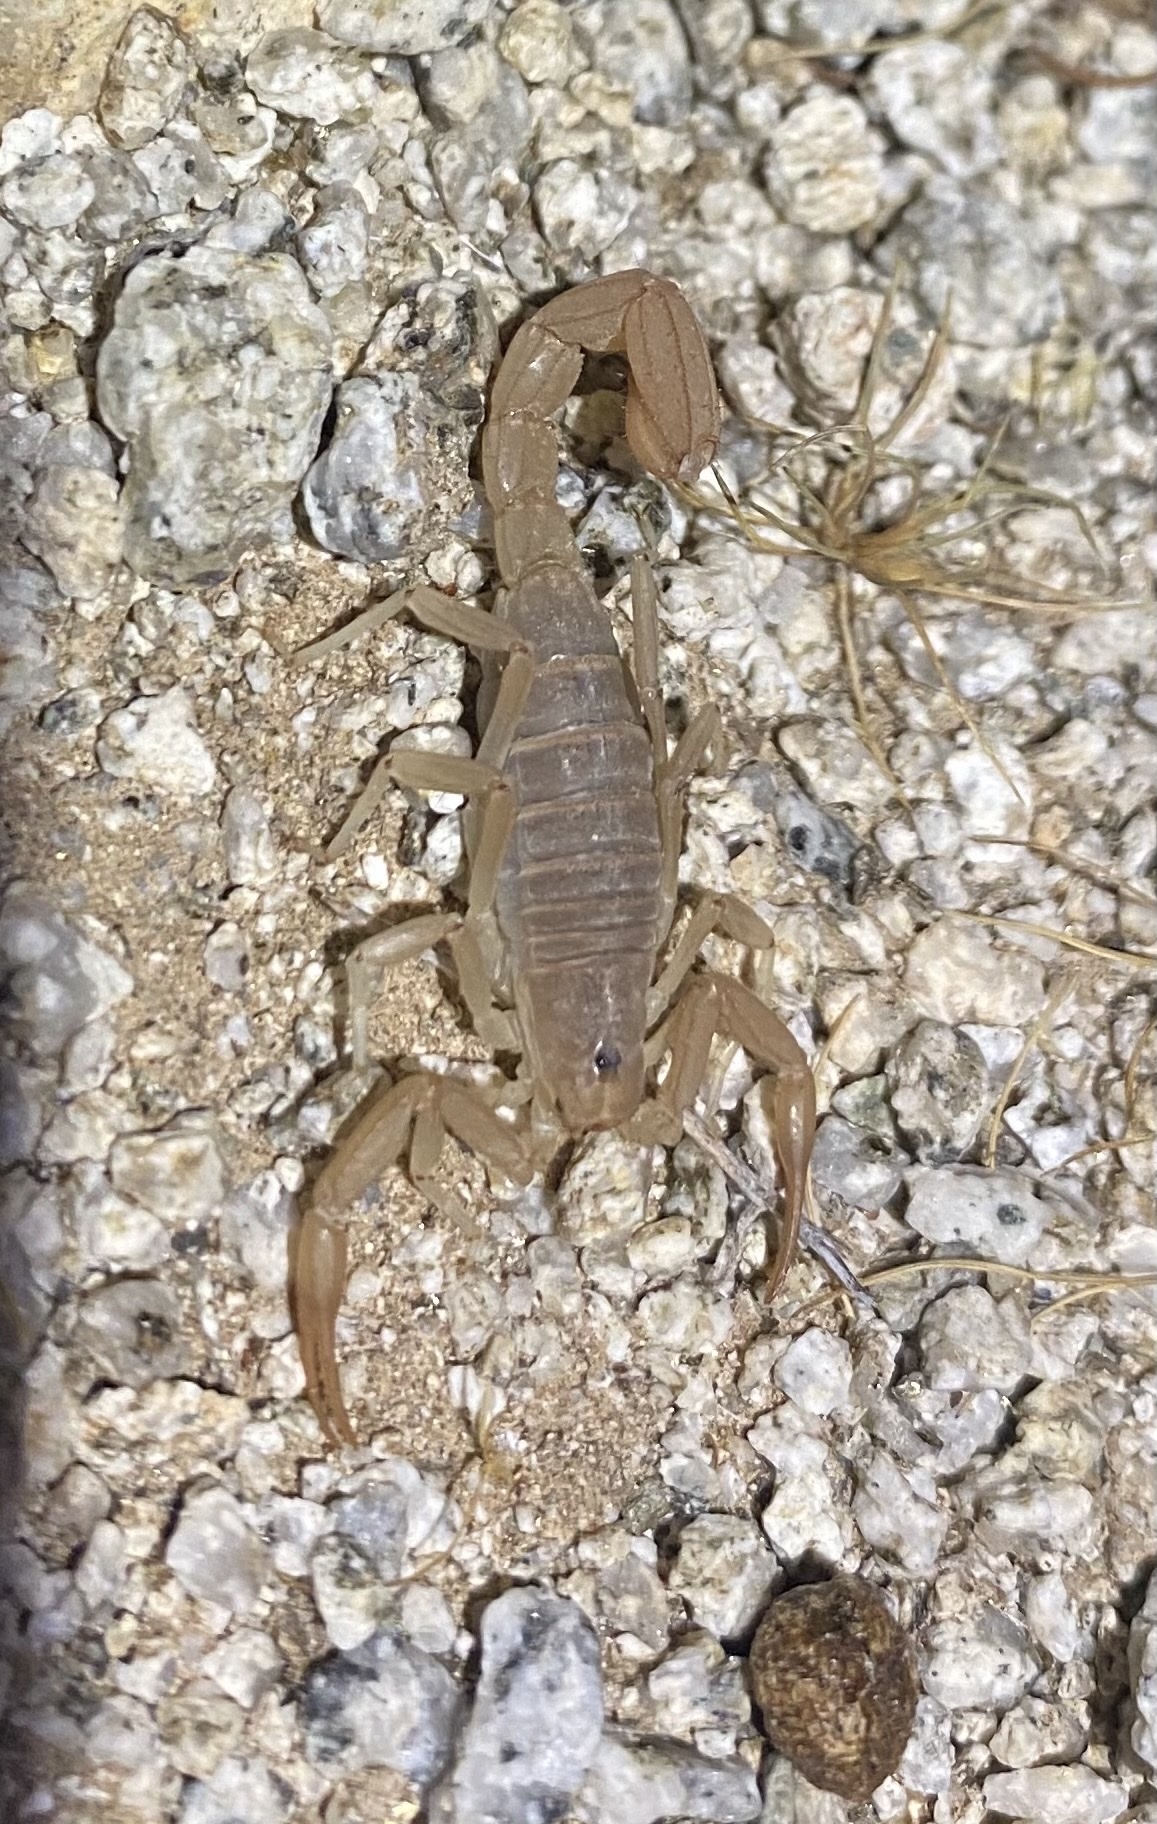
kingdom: Animalia
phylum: Arthropoda
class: Arachnida
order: Scorpiones
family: Vaejovidae
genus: Paravaejovis
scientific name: Paravaejovis confusus
